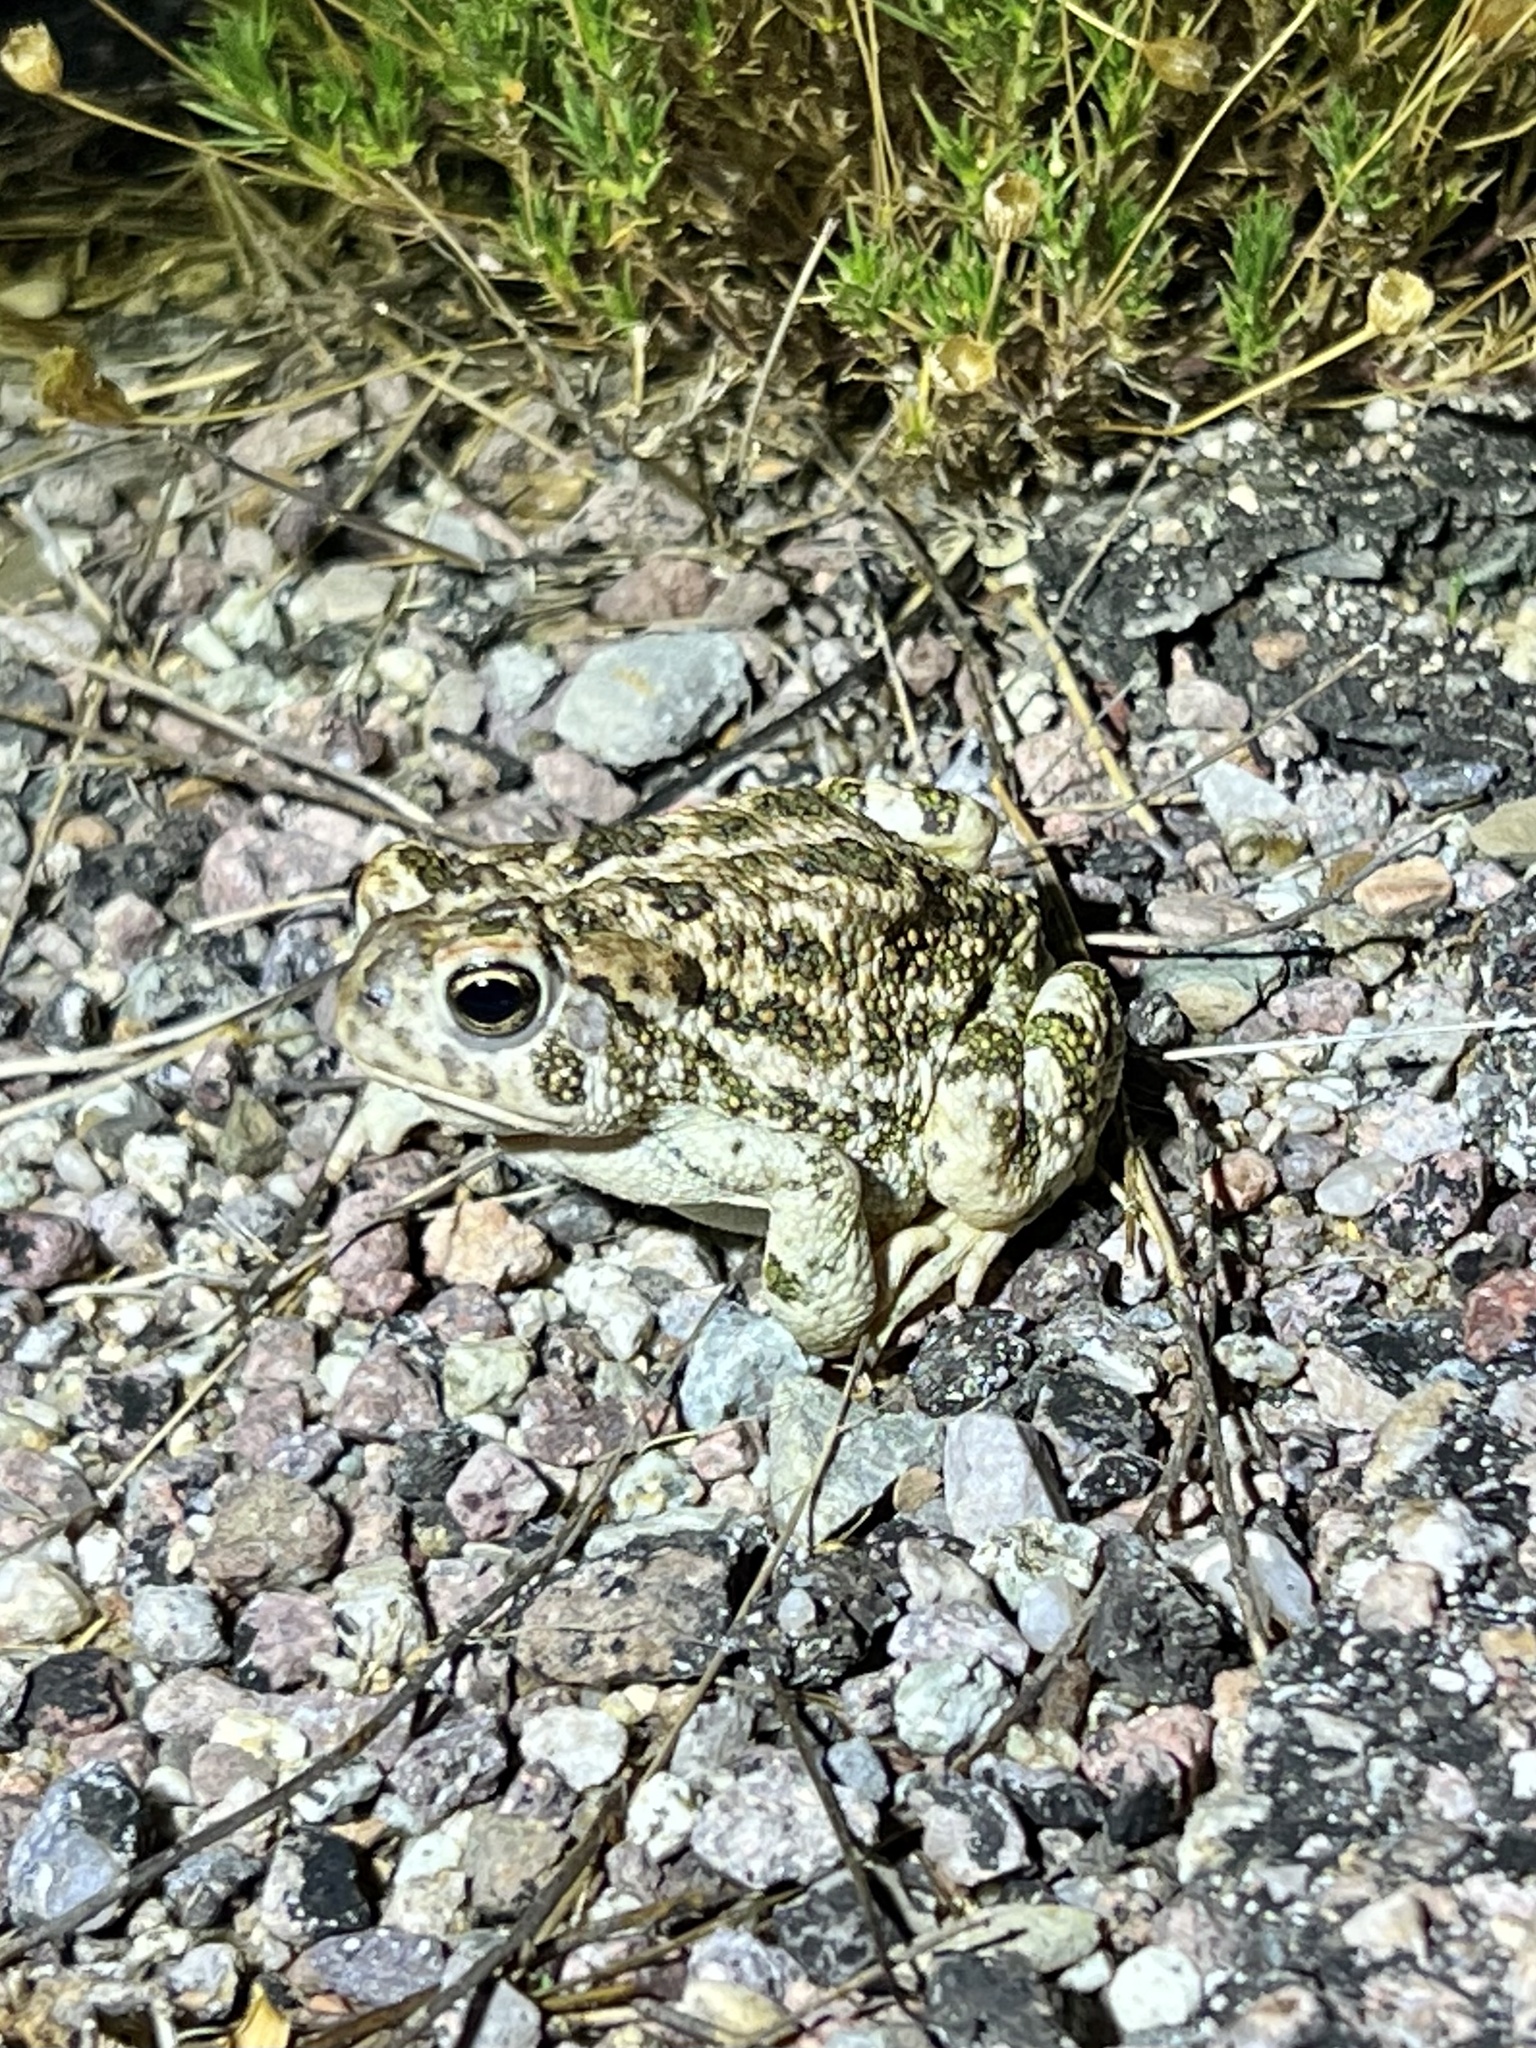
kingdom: Animalia
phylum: Chordata
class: Amphibia
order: Anura
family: Bufonidae
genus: Anaxyrus
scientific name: Anaxyrus cognatus
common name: Great plains toad
